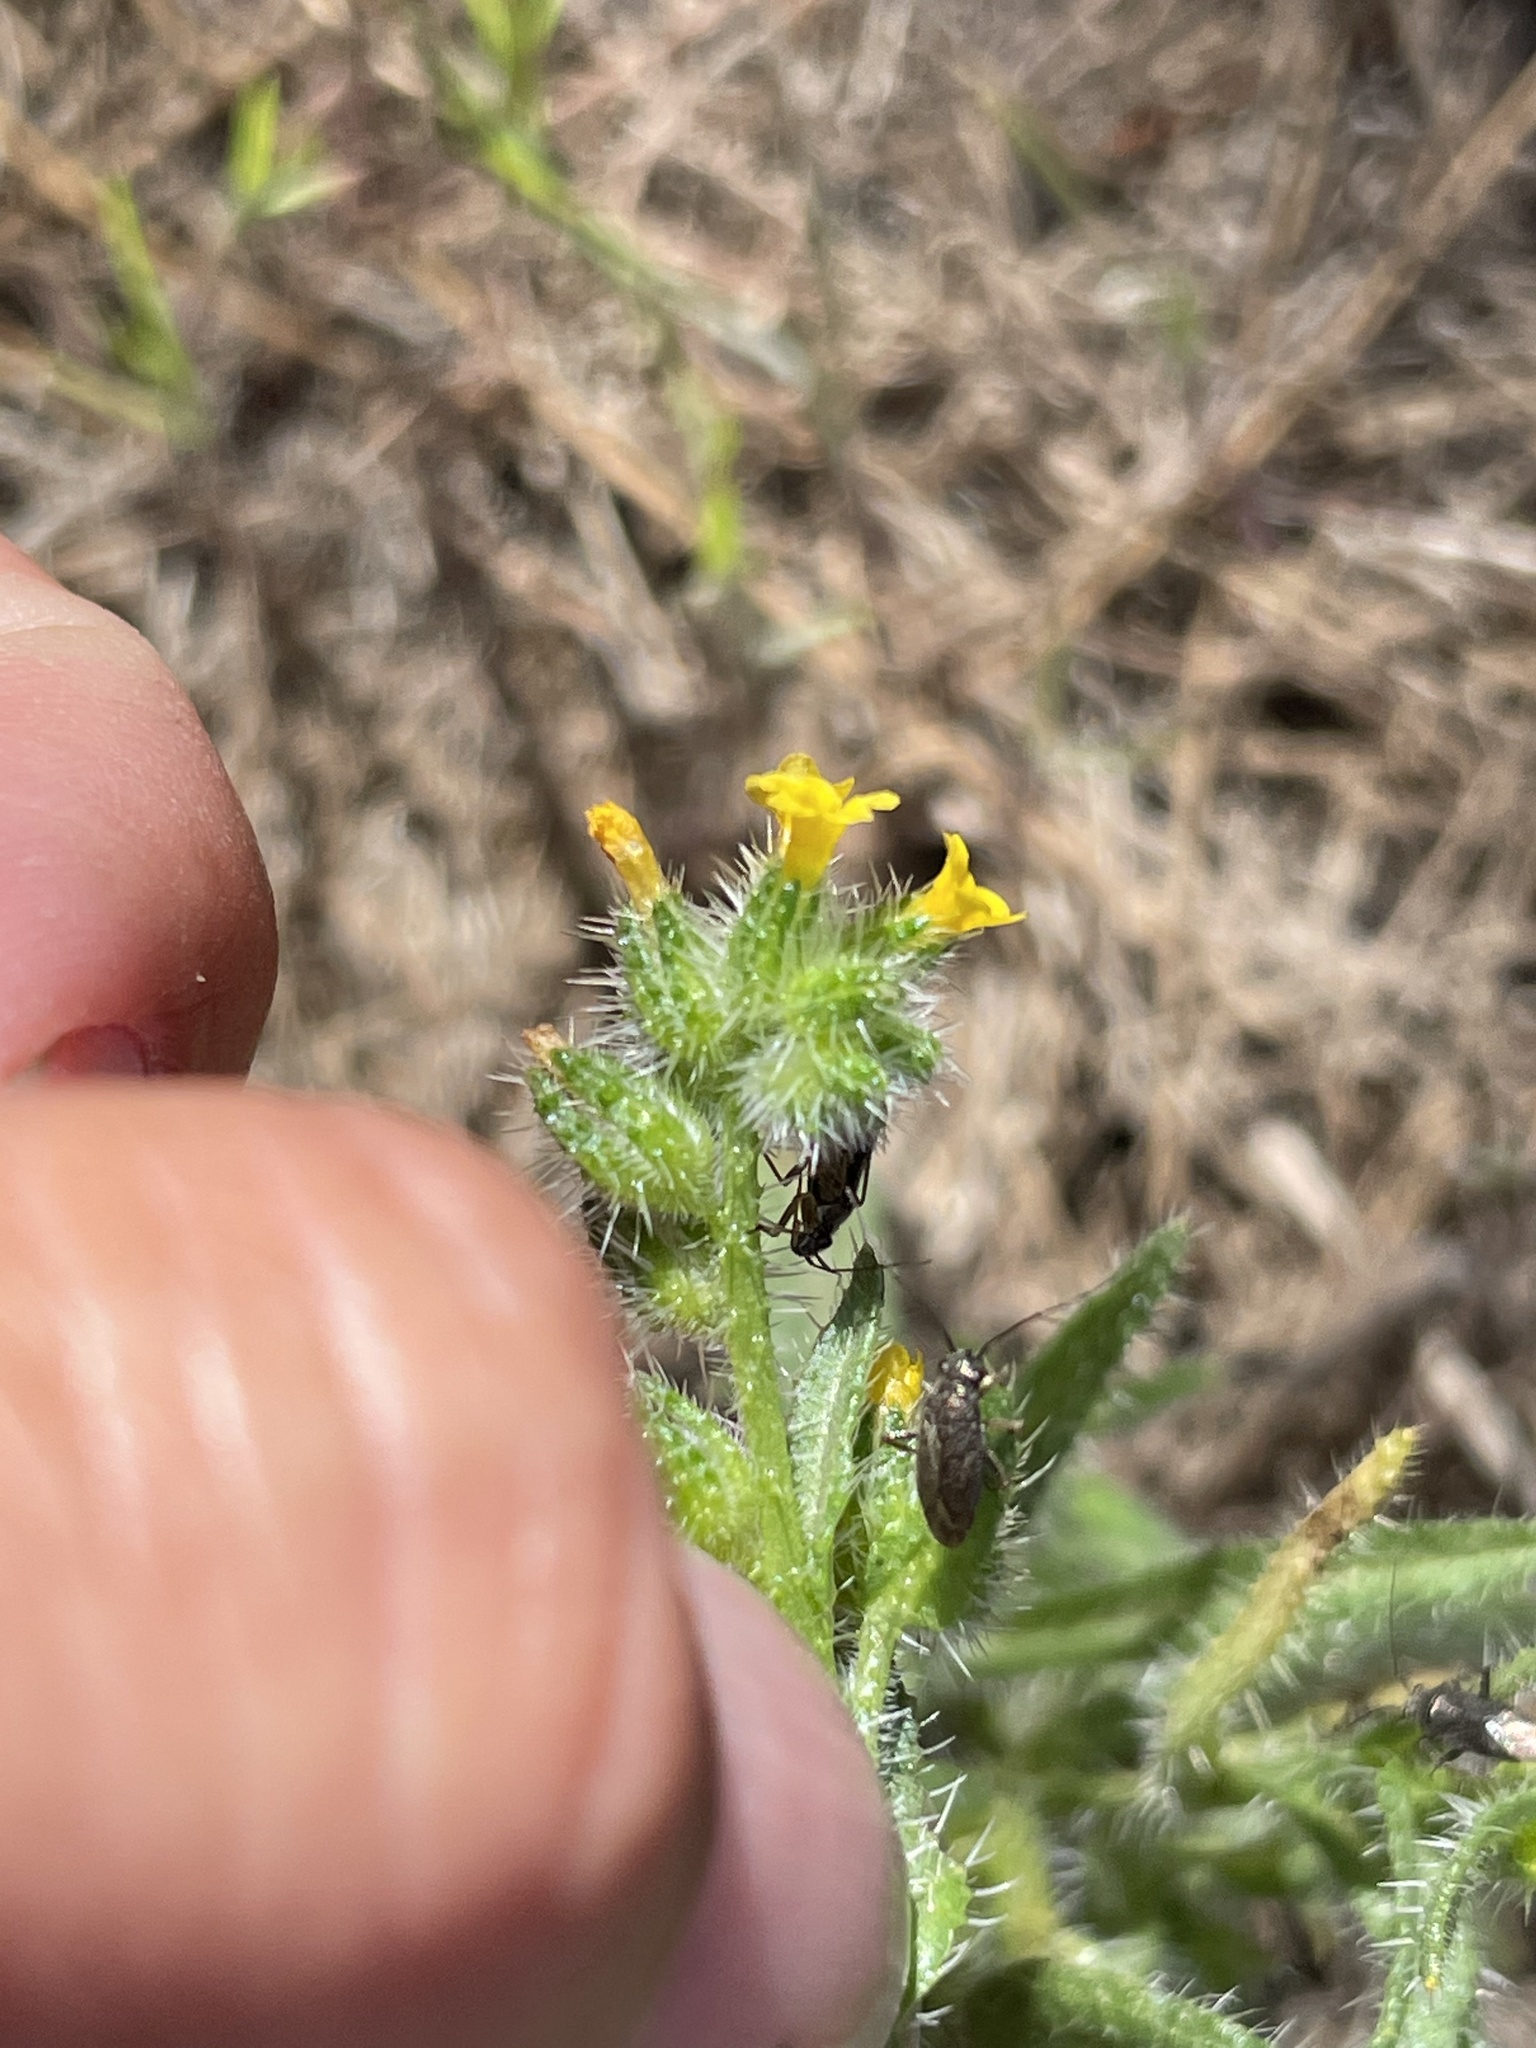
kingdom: Plantae
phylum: Tracheophyta
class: Magnoliopsida
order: Boraginales
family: Boraginaceae
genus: Amsinckia
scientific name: Amsinckia spectabilis
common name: Seaside fiddleneck
